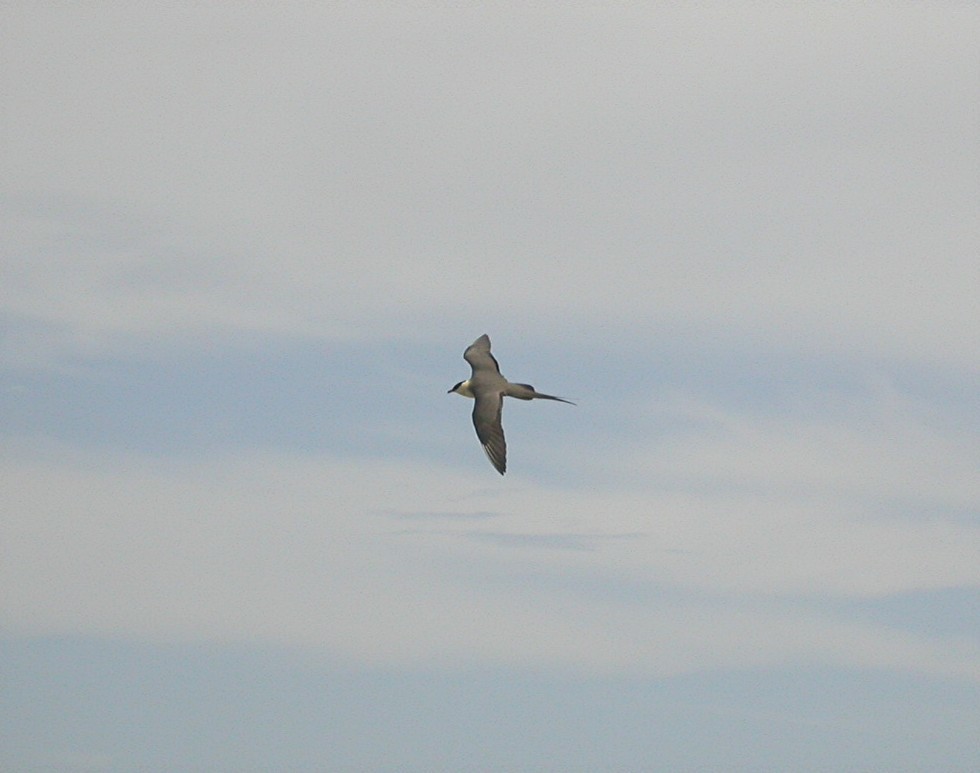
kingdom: Animalia
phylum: Chordata
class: Aves
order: Charadriiformes
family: Stercorariidae
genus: Stercorarius
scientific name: Stercorarius longicaudus
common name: Long-tailed jaeger
